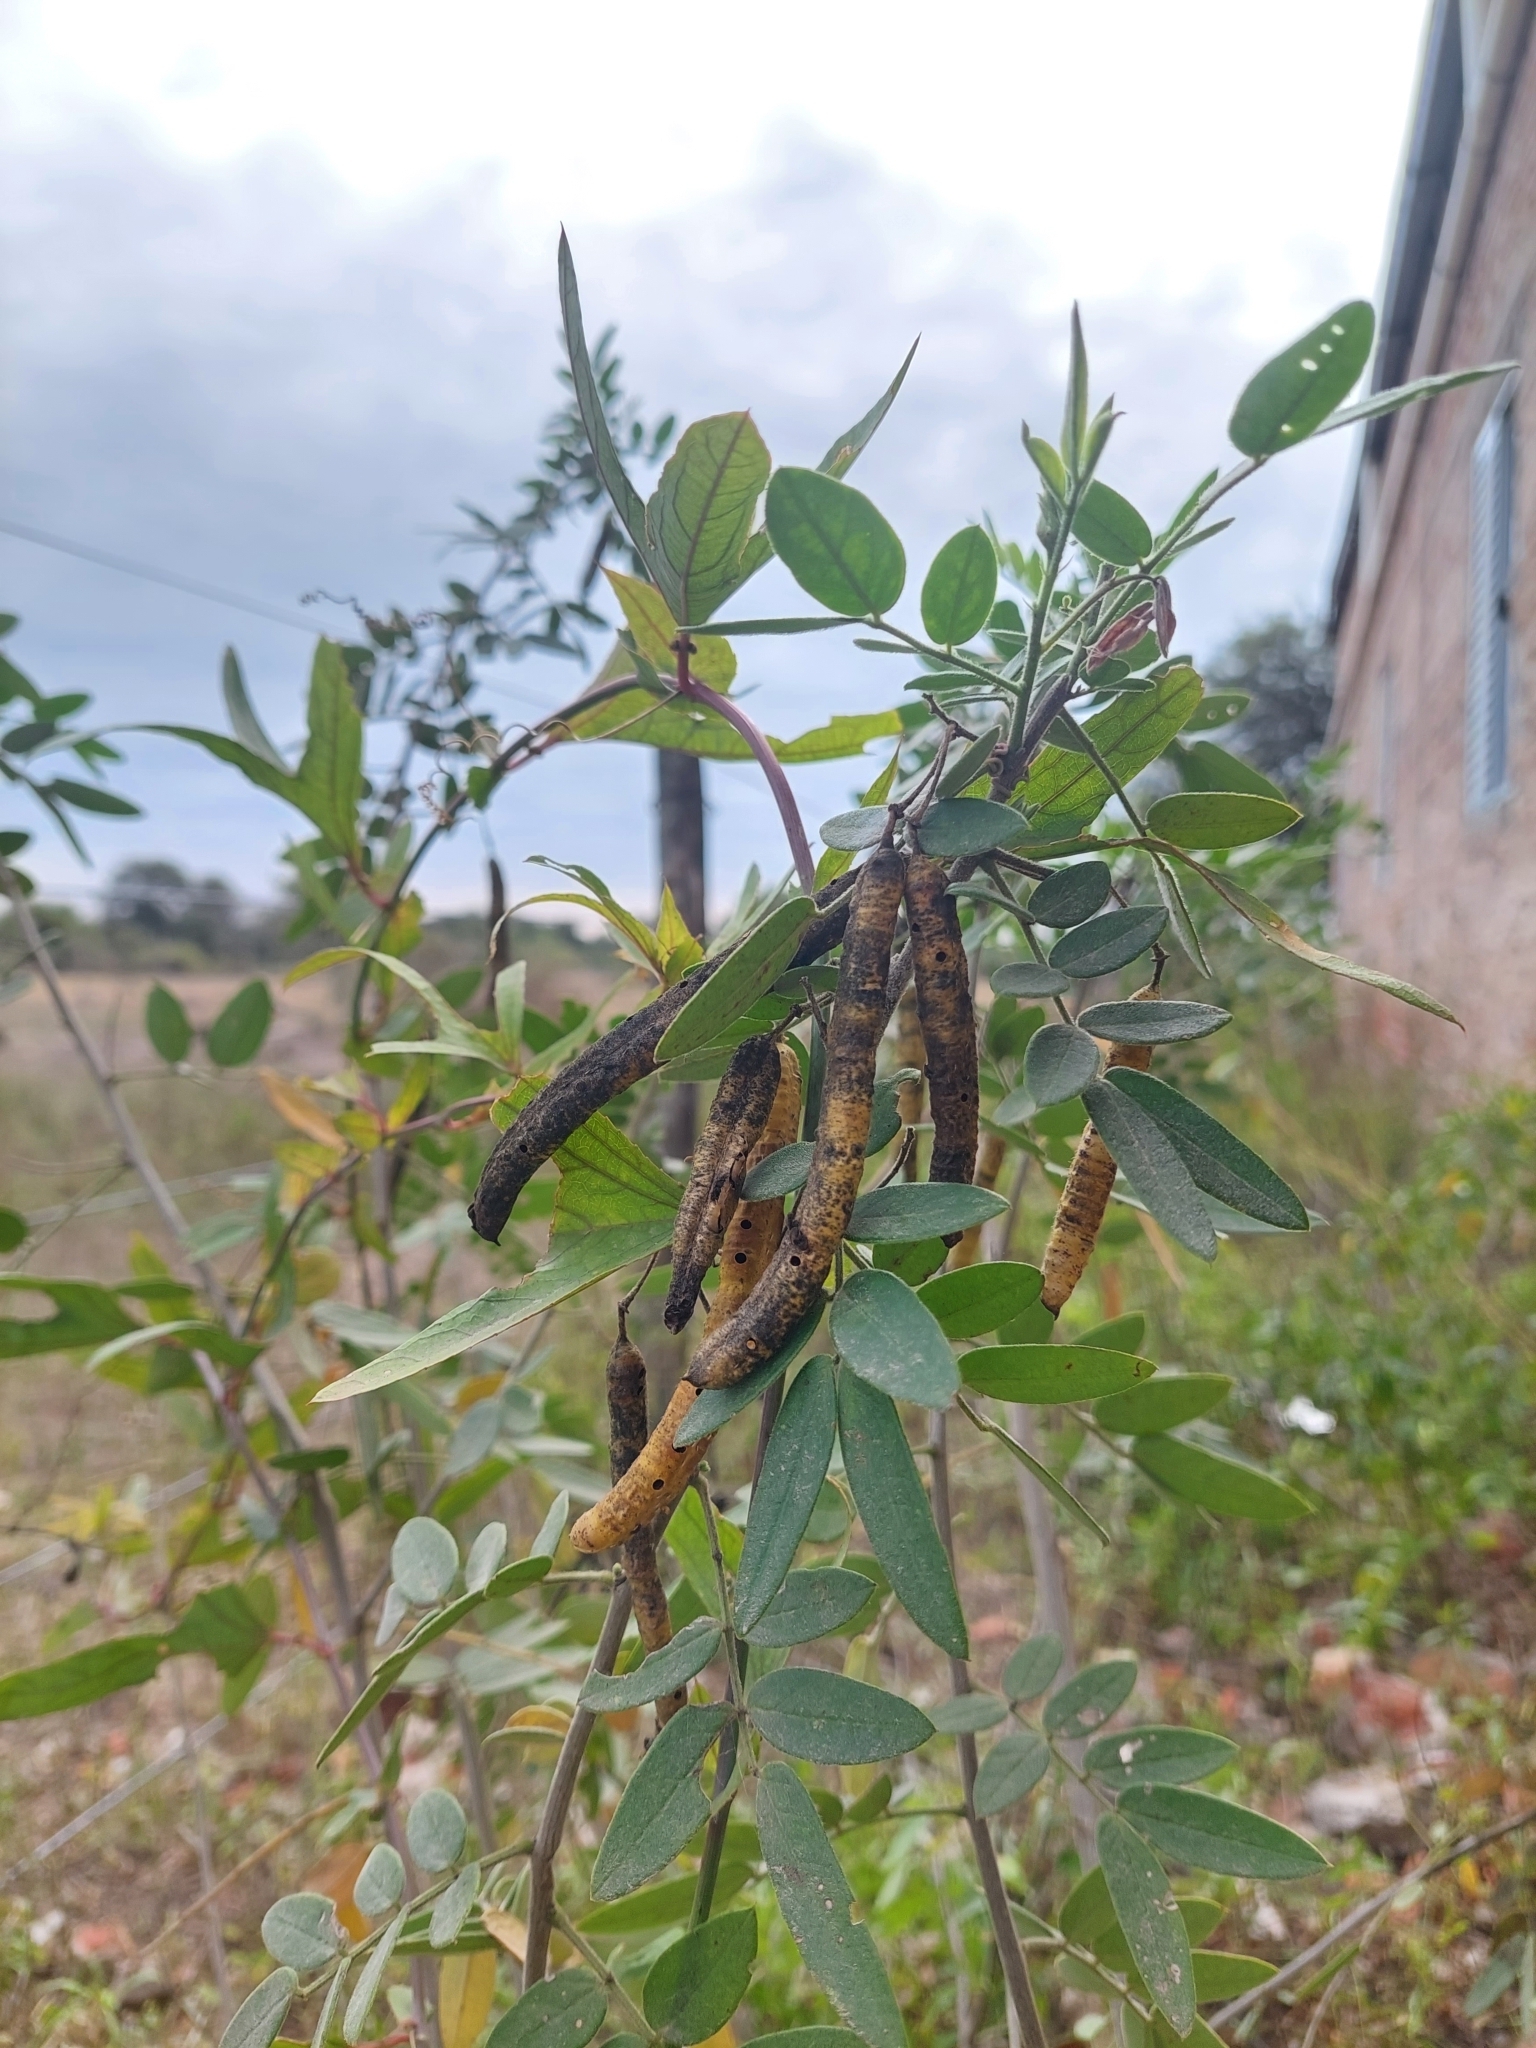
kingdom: Plantae
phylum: Tracheophyta
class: Magnoliopsida
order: Fabales
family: Fabaceae
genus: Senna
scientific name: Senna morongii
